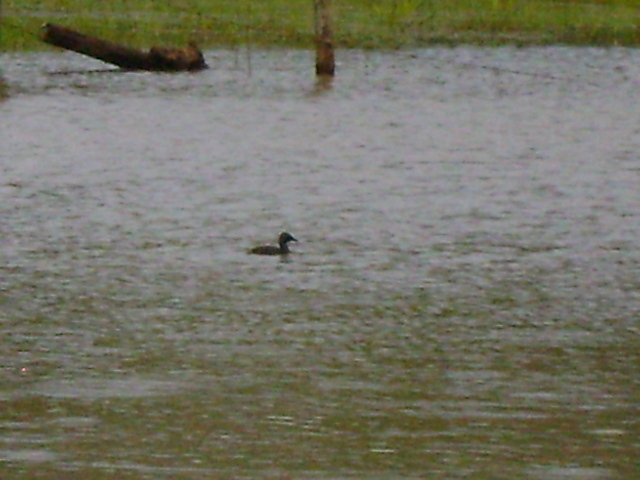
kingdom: Animalia
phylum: Chordata
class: Aves
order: Podicipediformes
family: Podicipedidae
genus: Tachybaptus
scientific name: Tachybaptus dominicus
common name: Least grebe
